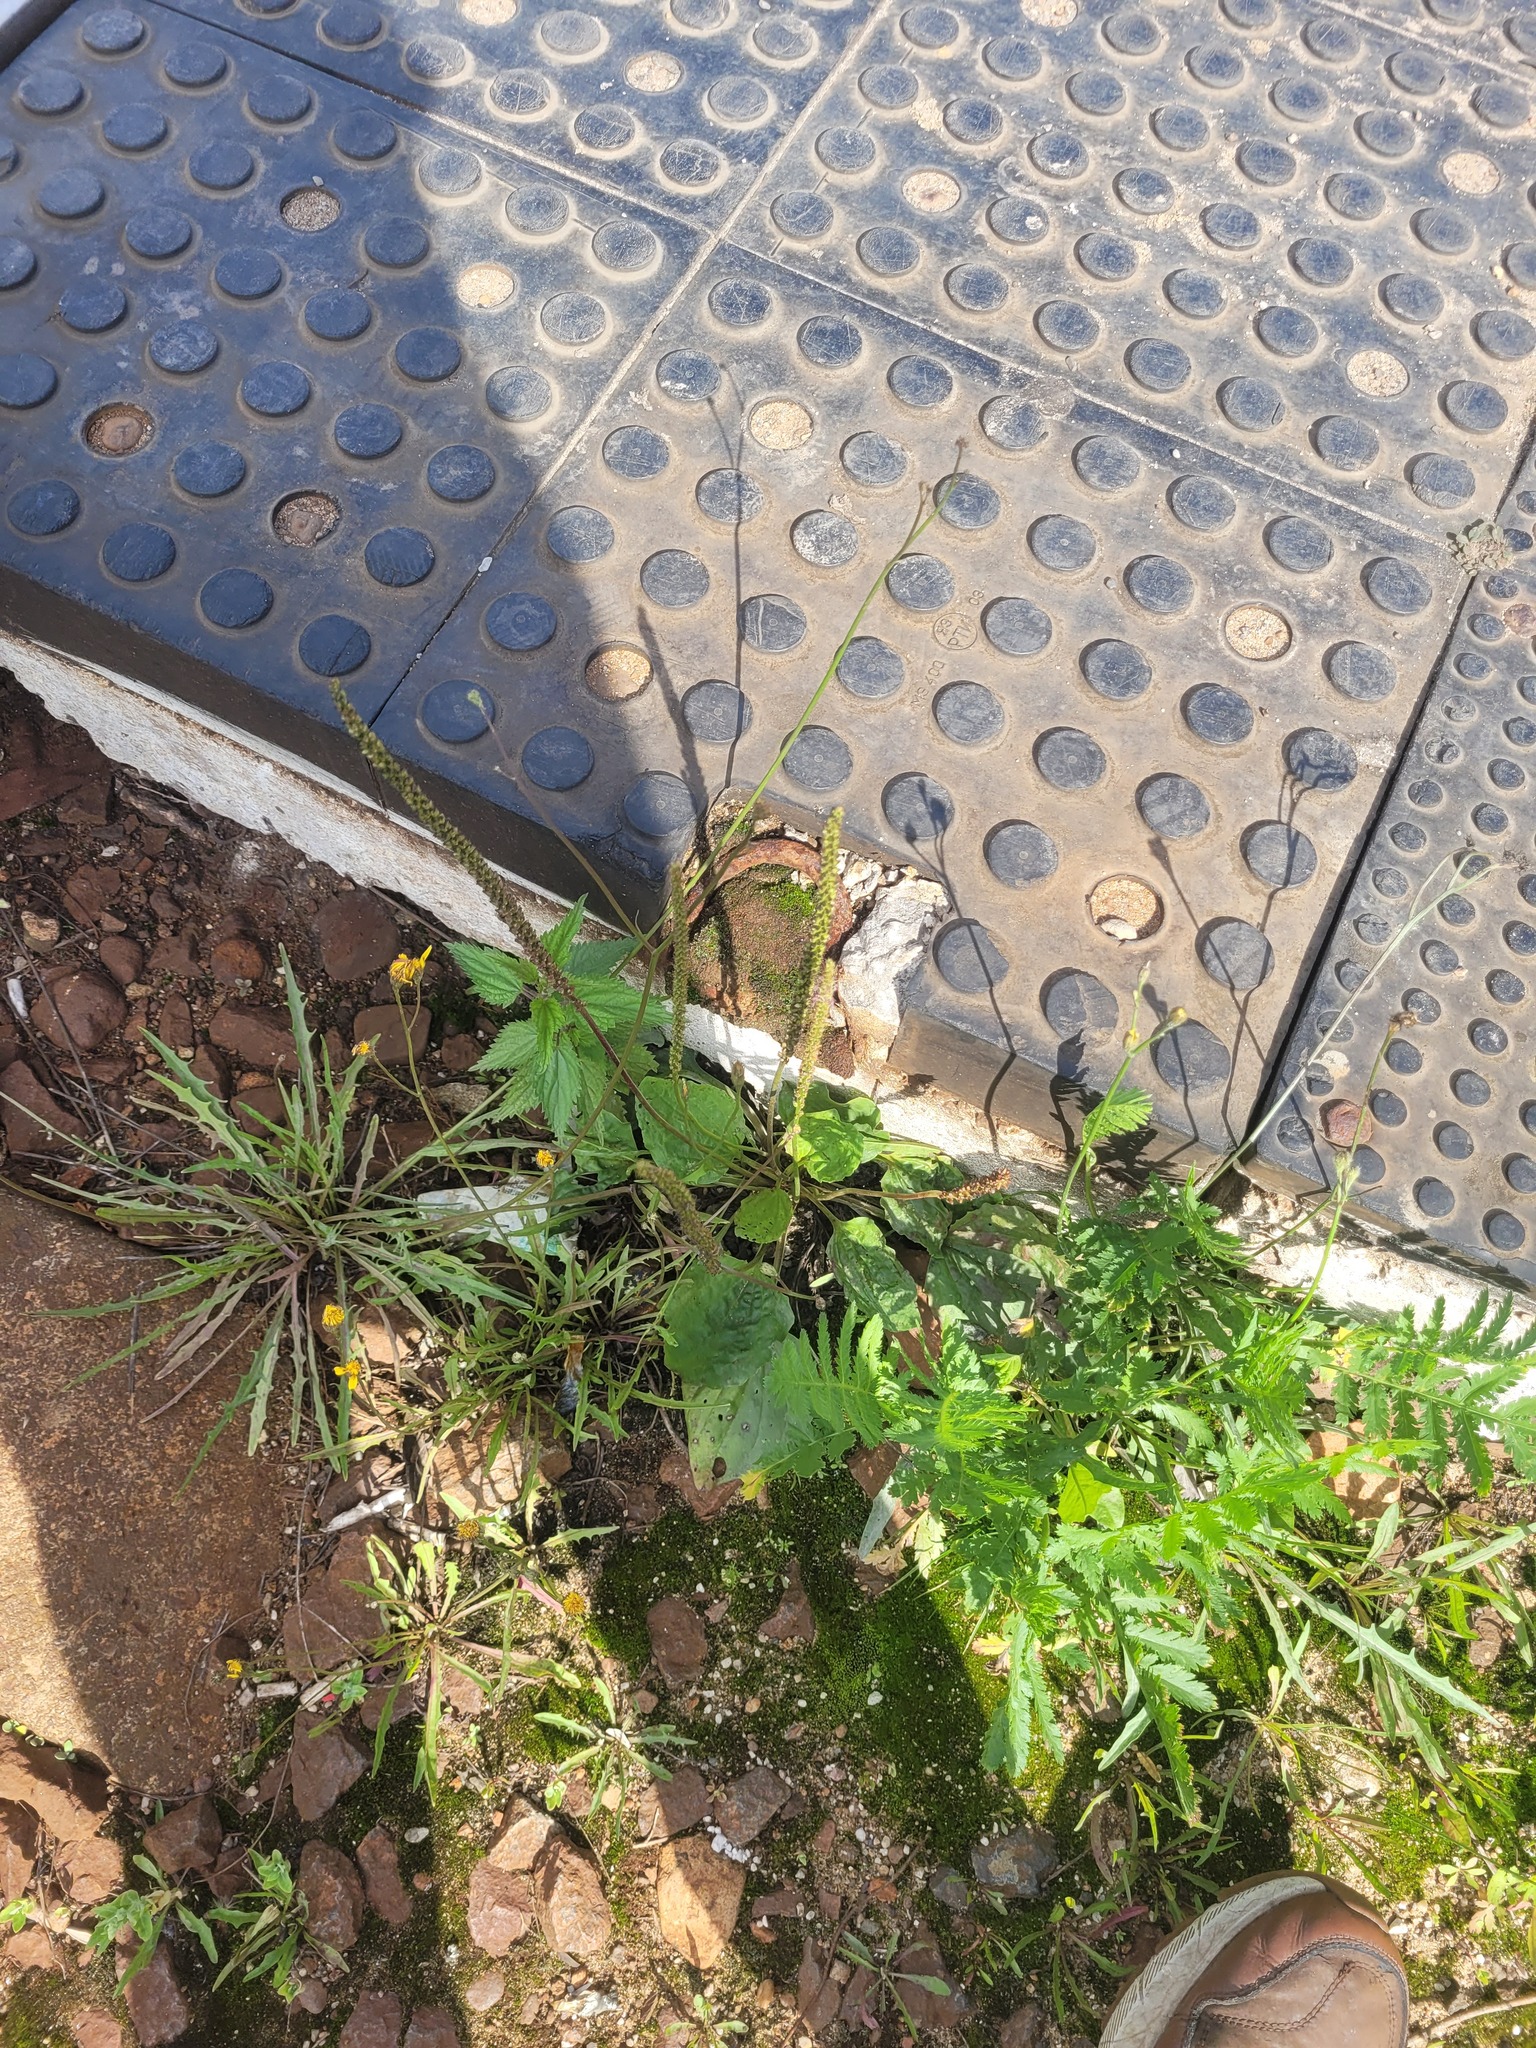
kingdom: Plantae
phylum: Tracheophyta
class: Magnoliopsida
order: Lamiales
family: Plantaginaceae
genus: Plantago
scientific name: Plantago major
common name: Common plantain
